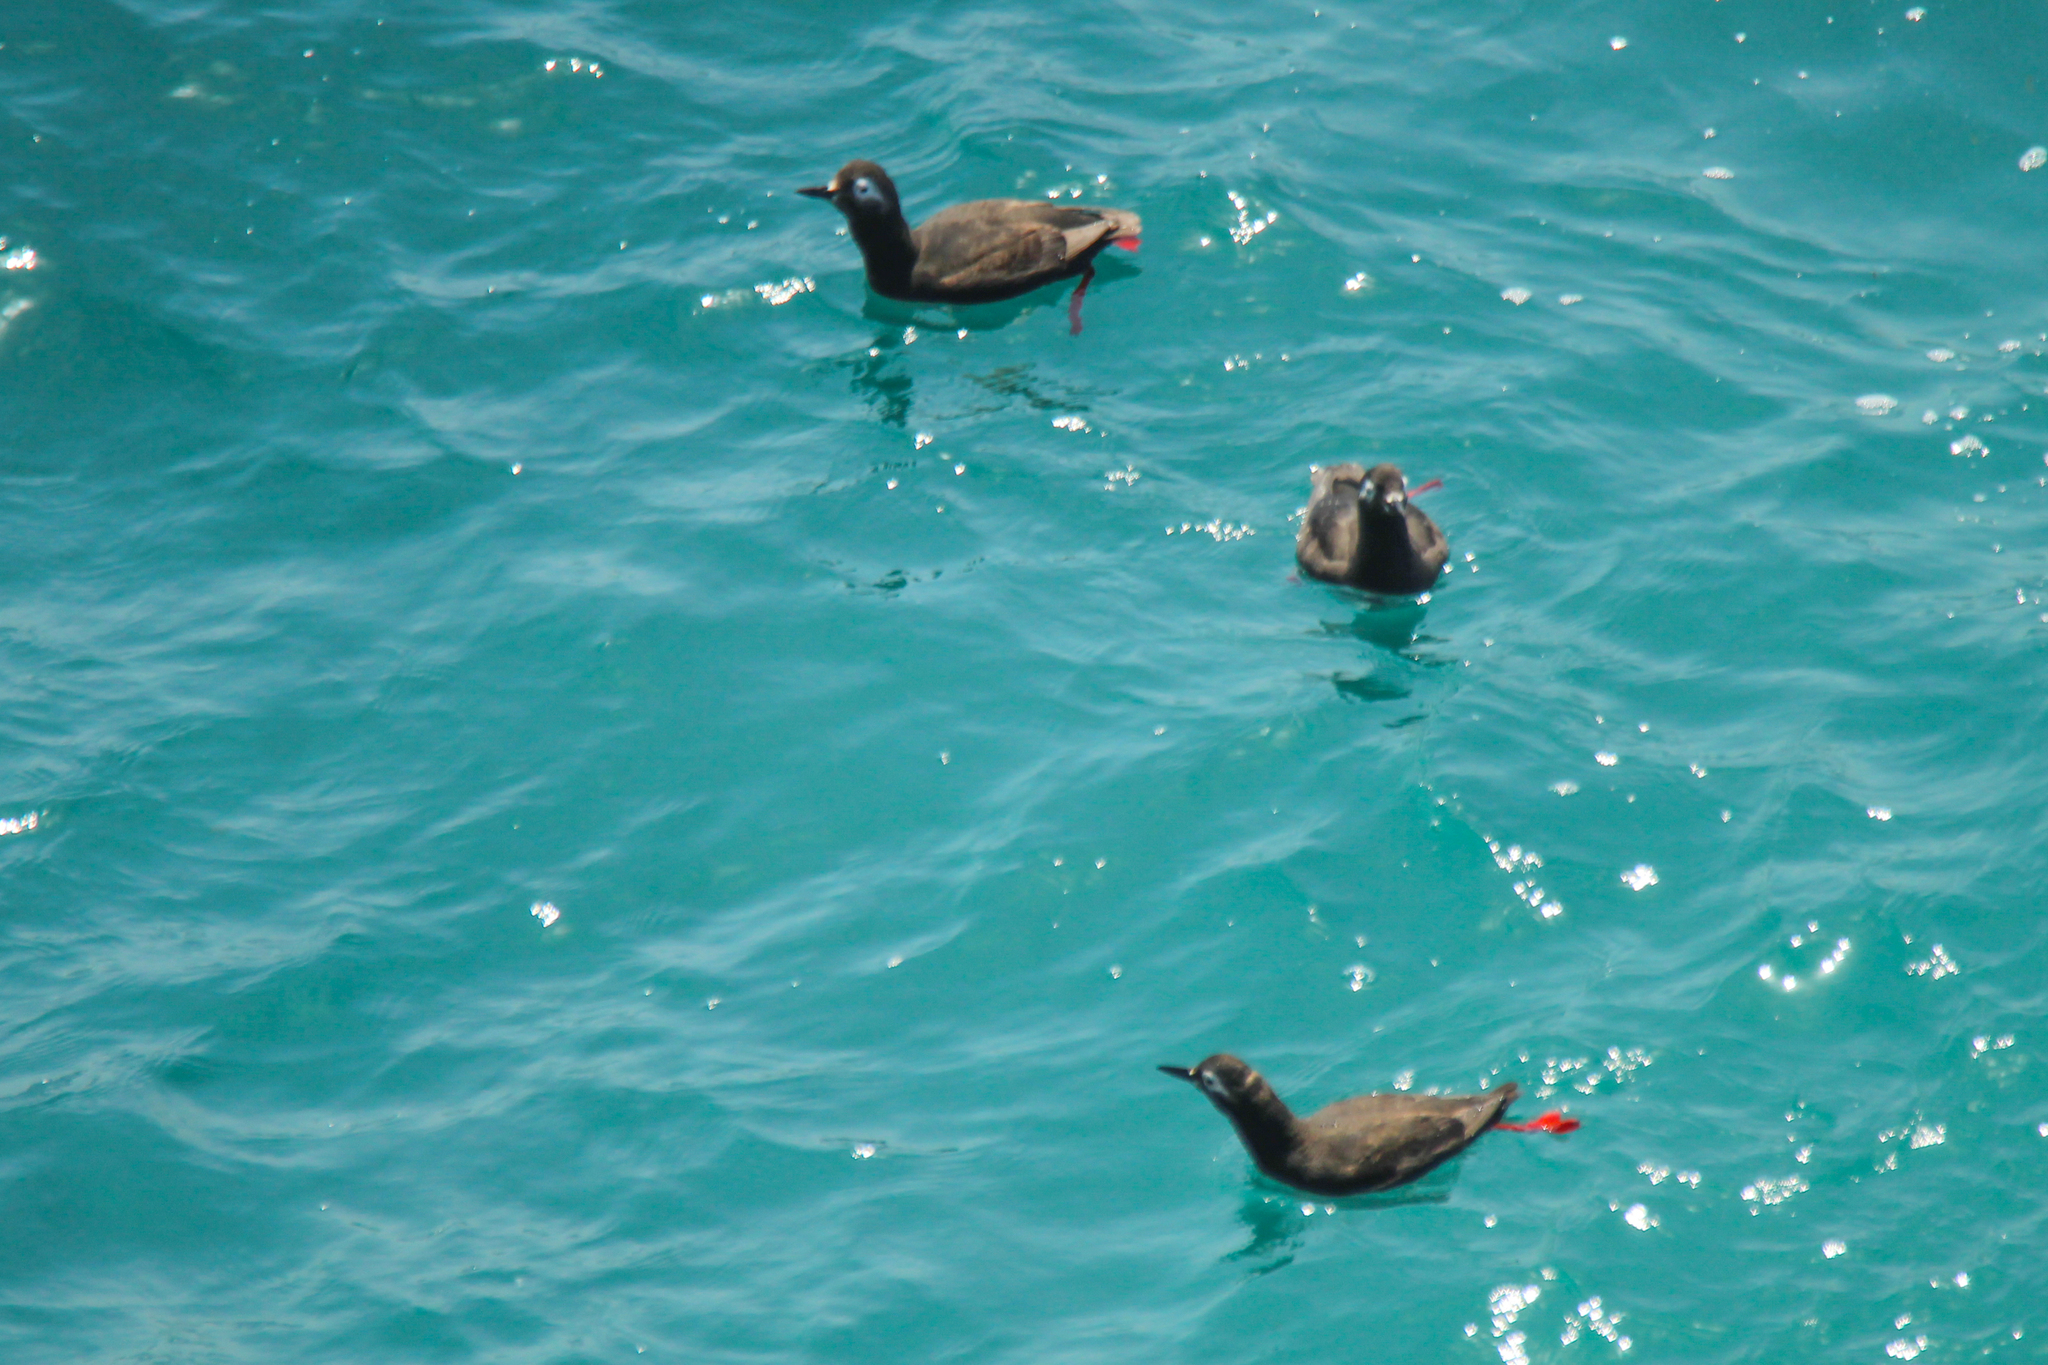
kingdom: Animalia
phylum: Chordata
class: Aves
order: Charadriiformes
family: Alcidae
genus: Cepphus
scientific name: Cepphus carbo
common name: Spectacled guillemot
